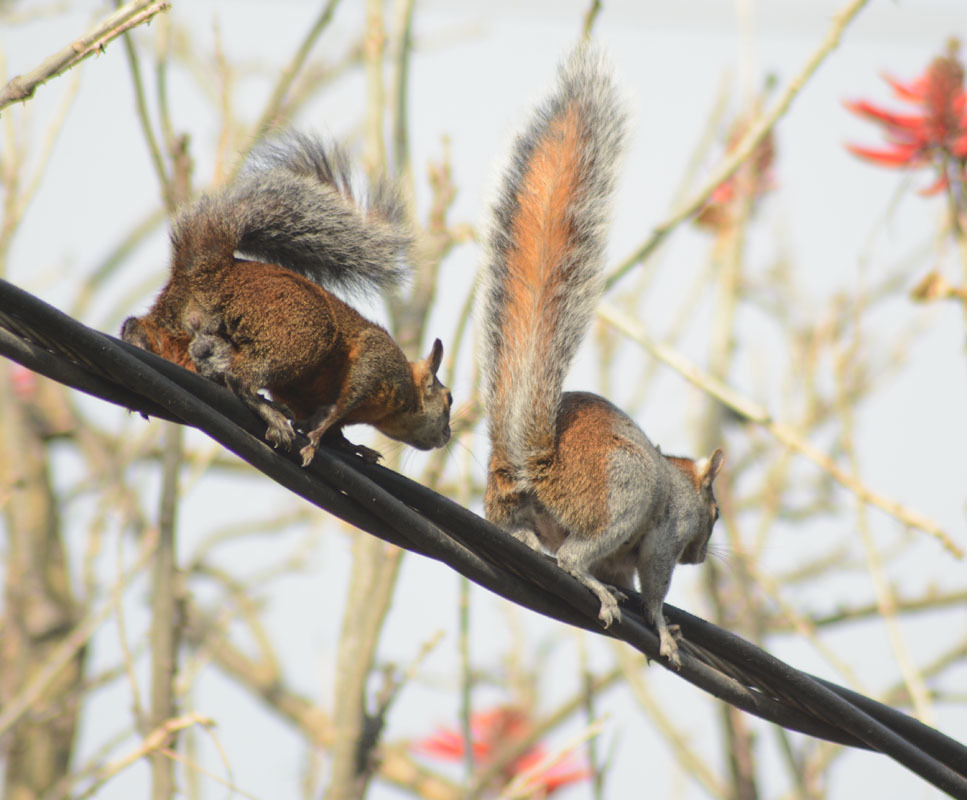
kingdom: Animalia
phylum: Chordata
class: Mammalia
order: Rodentia
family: Sciuridae
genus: Sciurus
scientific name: Sciurus aureogaster
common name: Red-bellied squirrel
